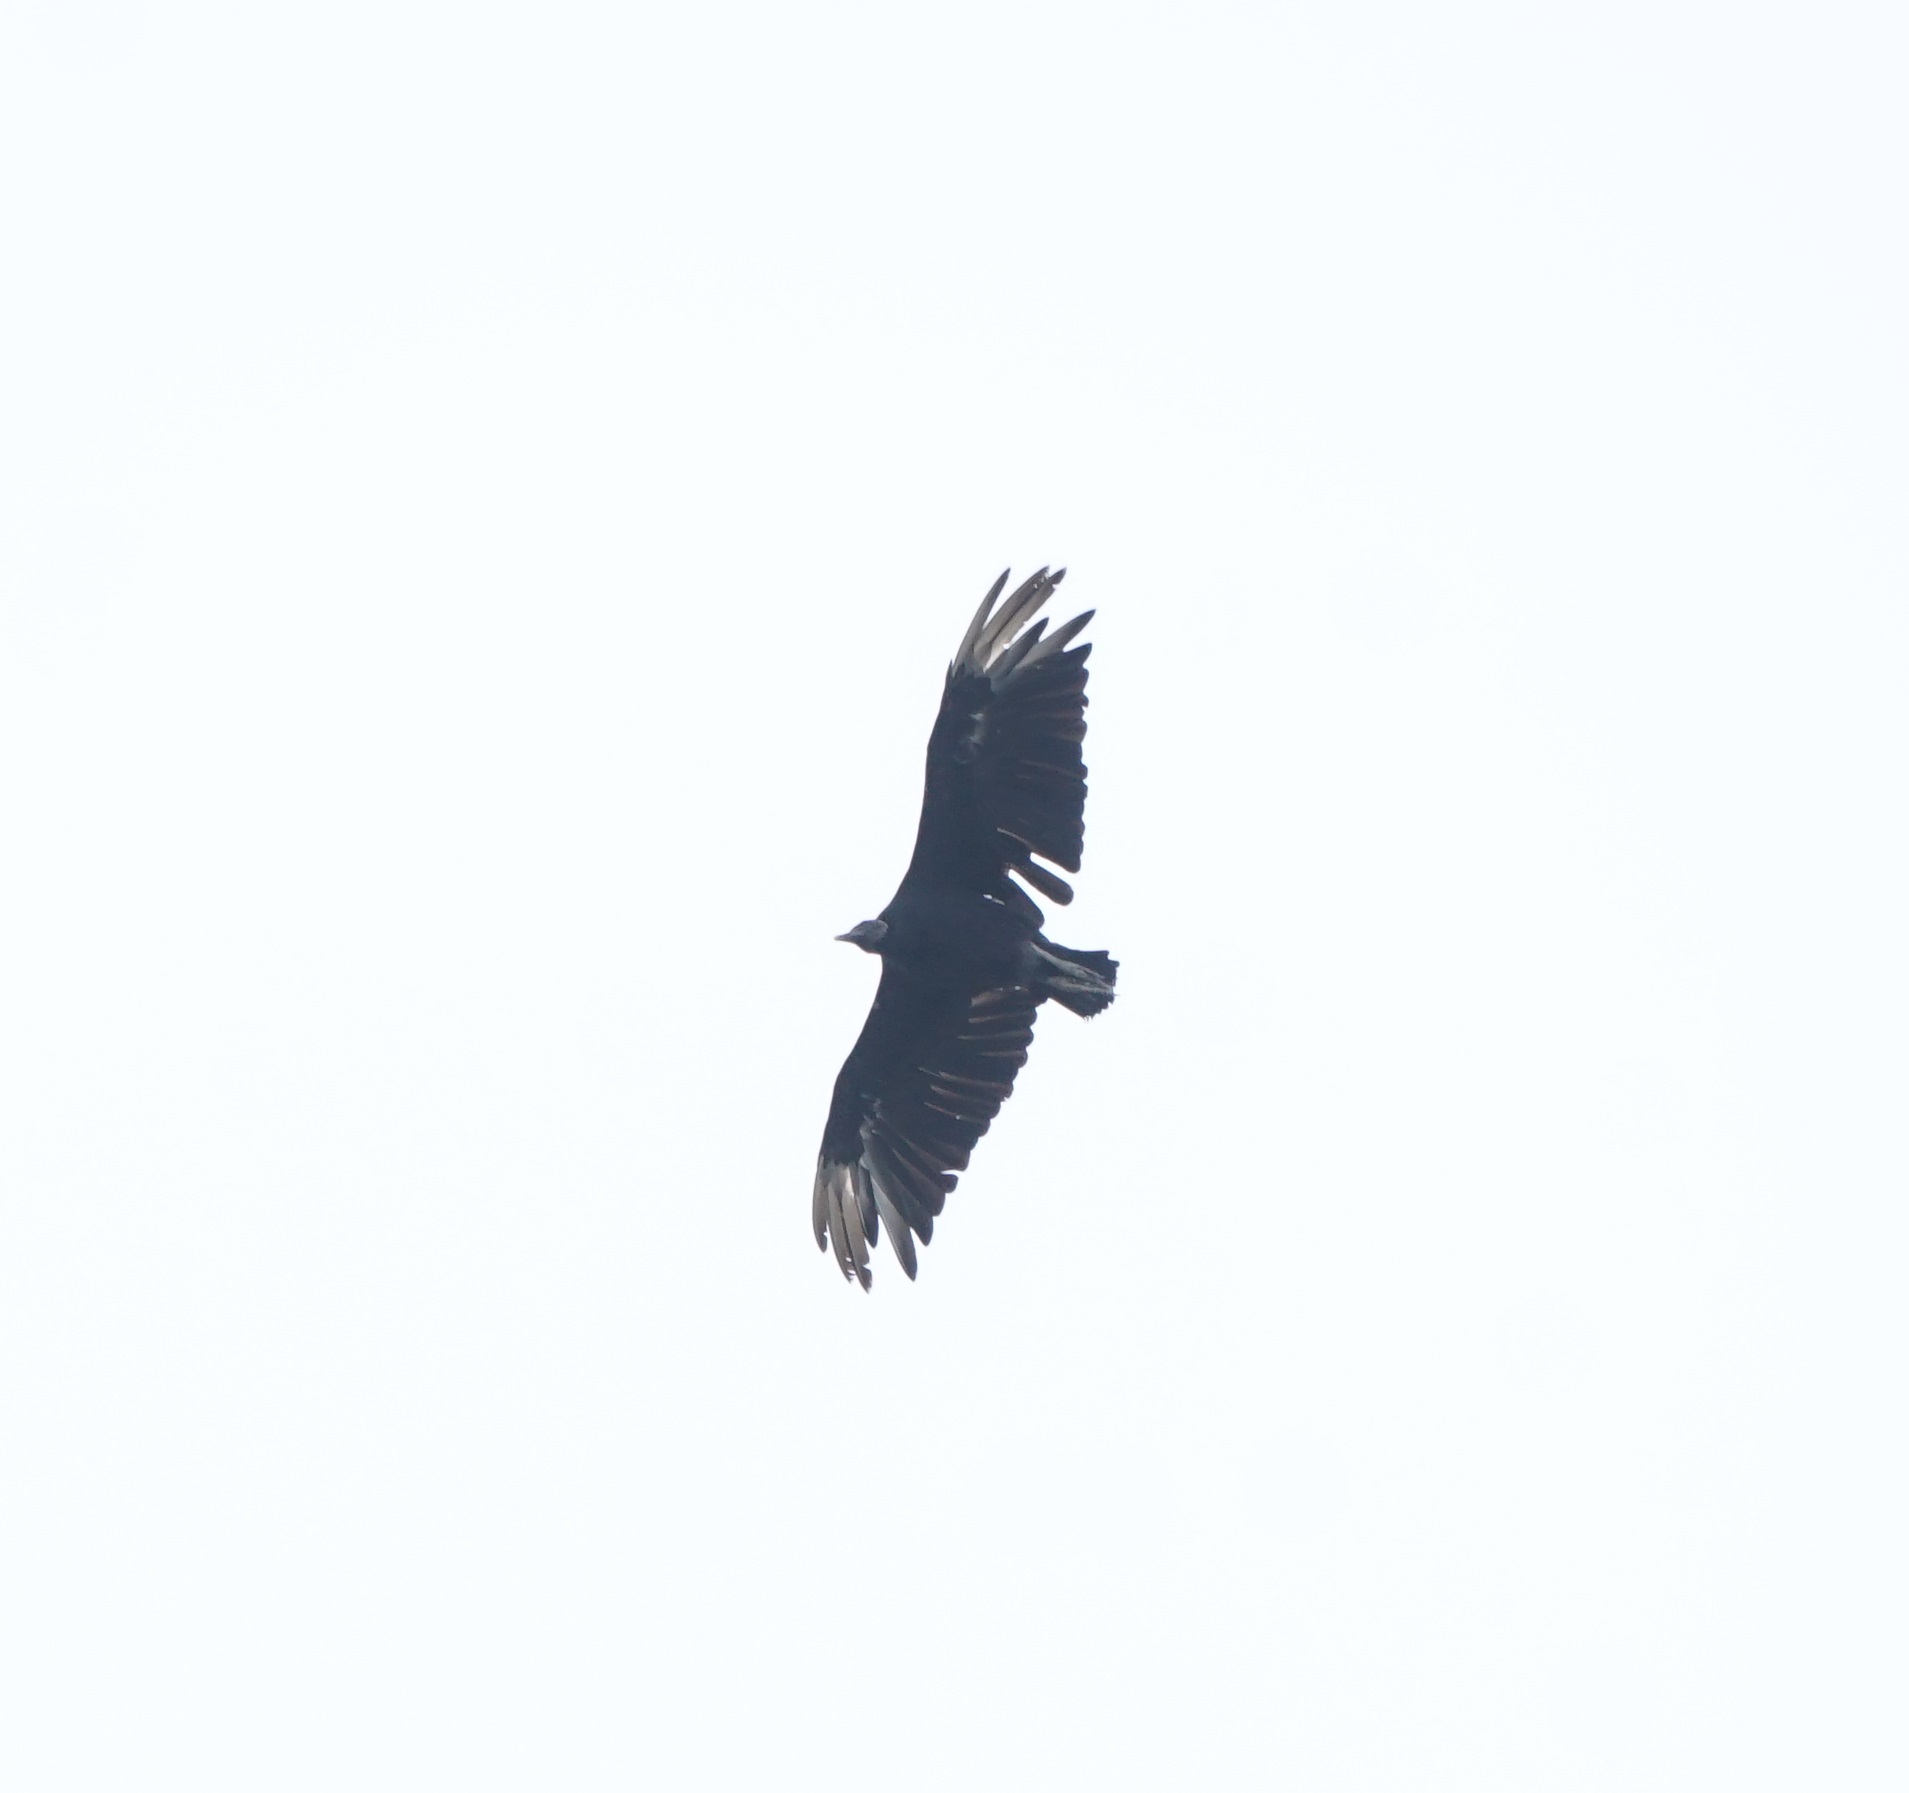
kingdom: Animalia
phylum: Chordata
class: Aves
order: Accipitriformes
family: Cathartidae
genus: Coragyps
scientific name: Coragyps atratus
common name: Black vulture
